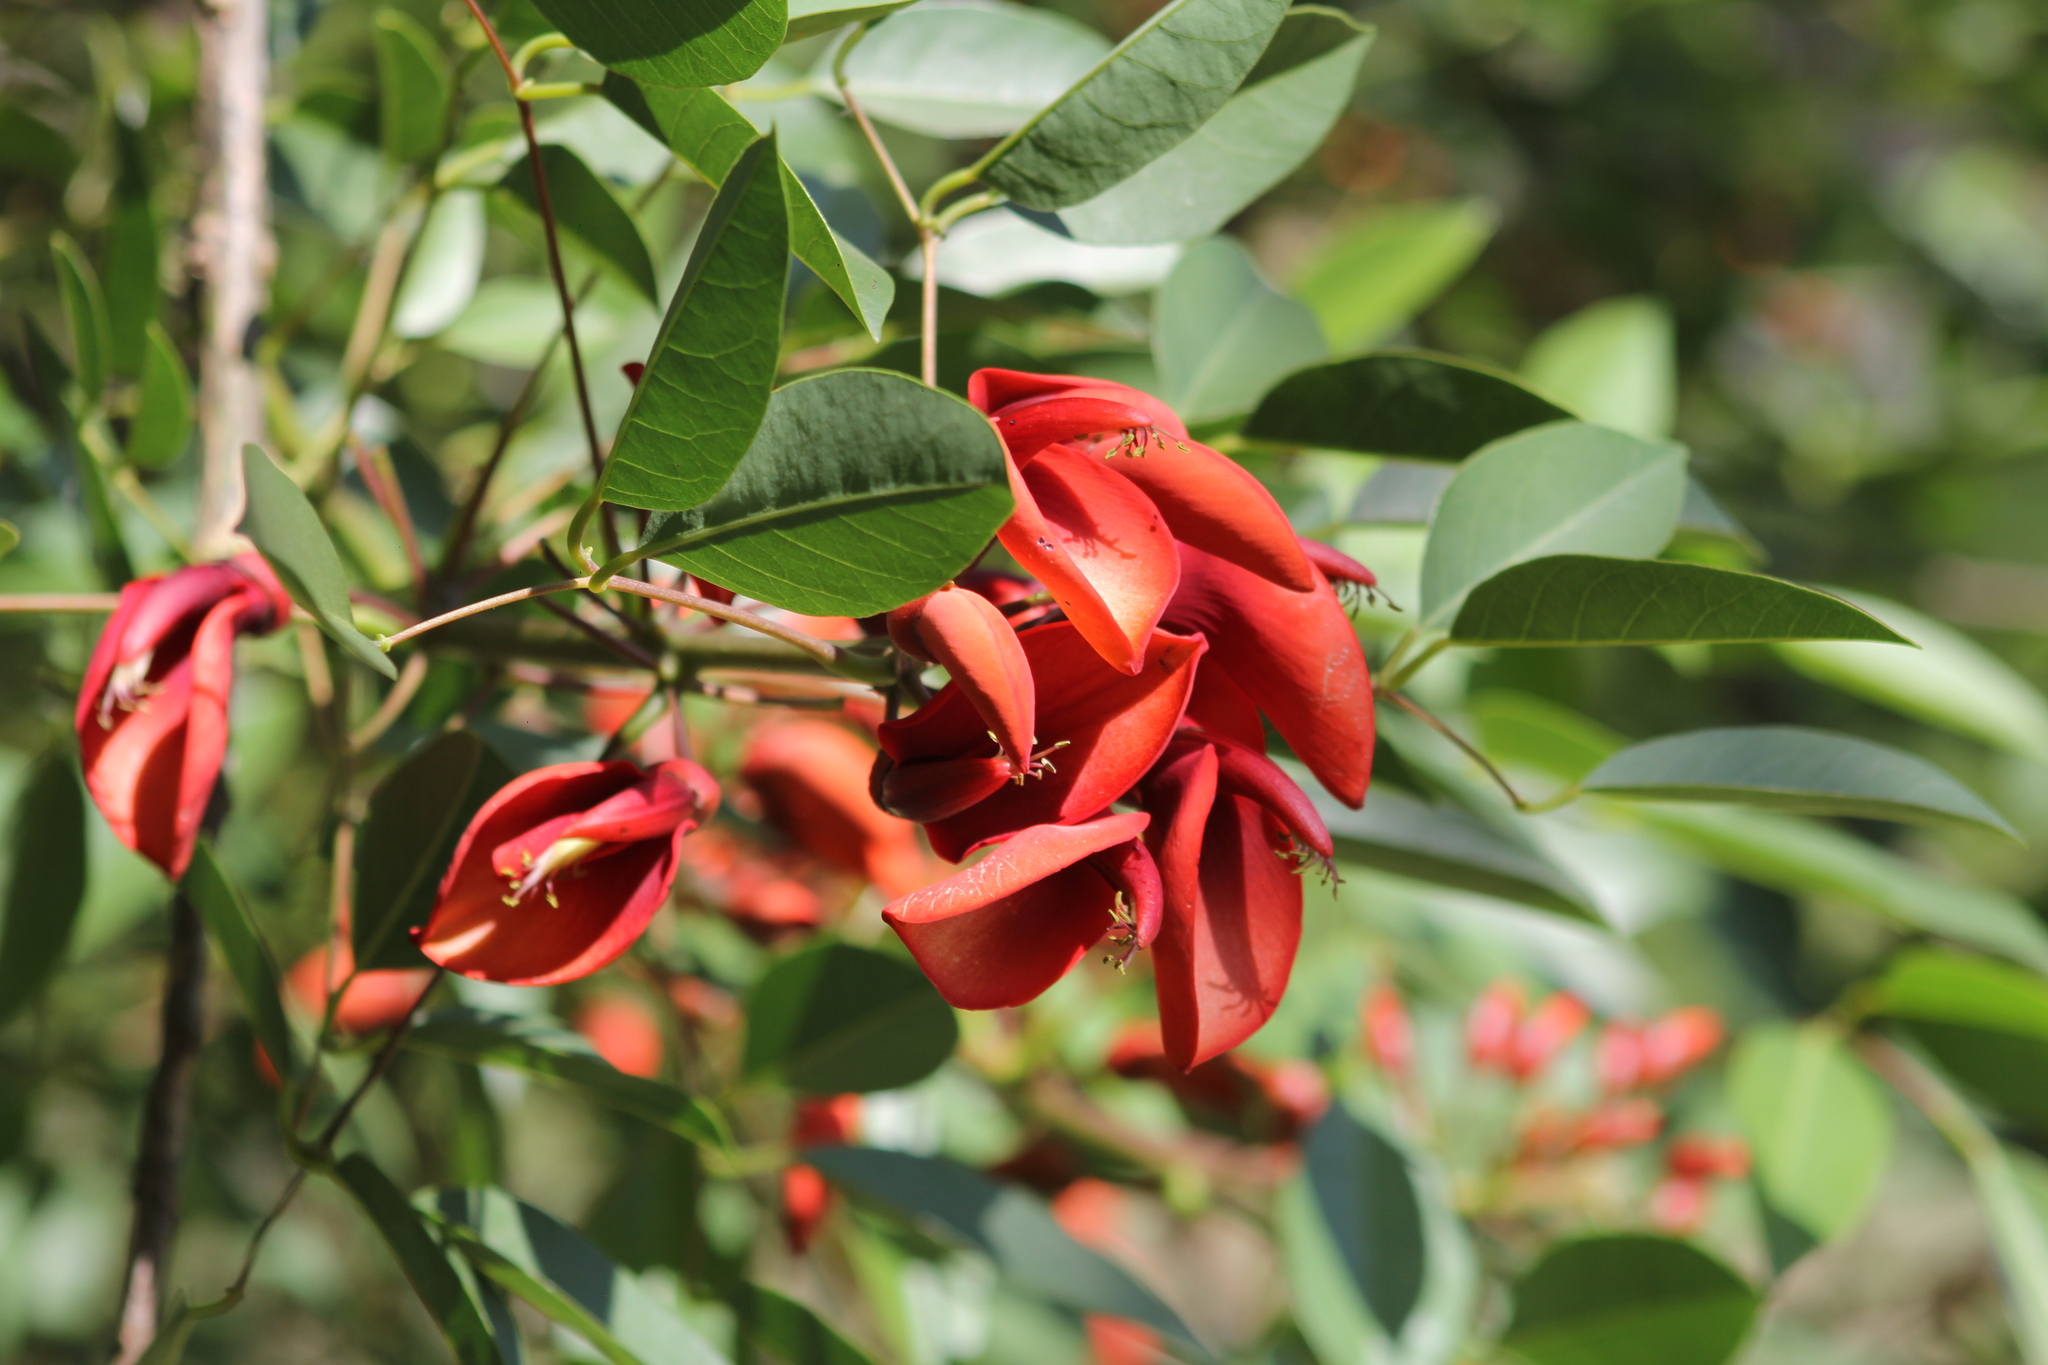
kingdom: Plantae
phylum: Tracheophyta
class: Magnoliopsida
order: Fabales
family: Fabaceae
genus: Erythrina
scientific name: Erythrina crista-galli
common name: Cockspur coral tree
